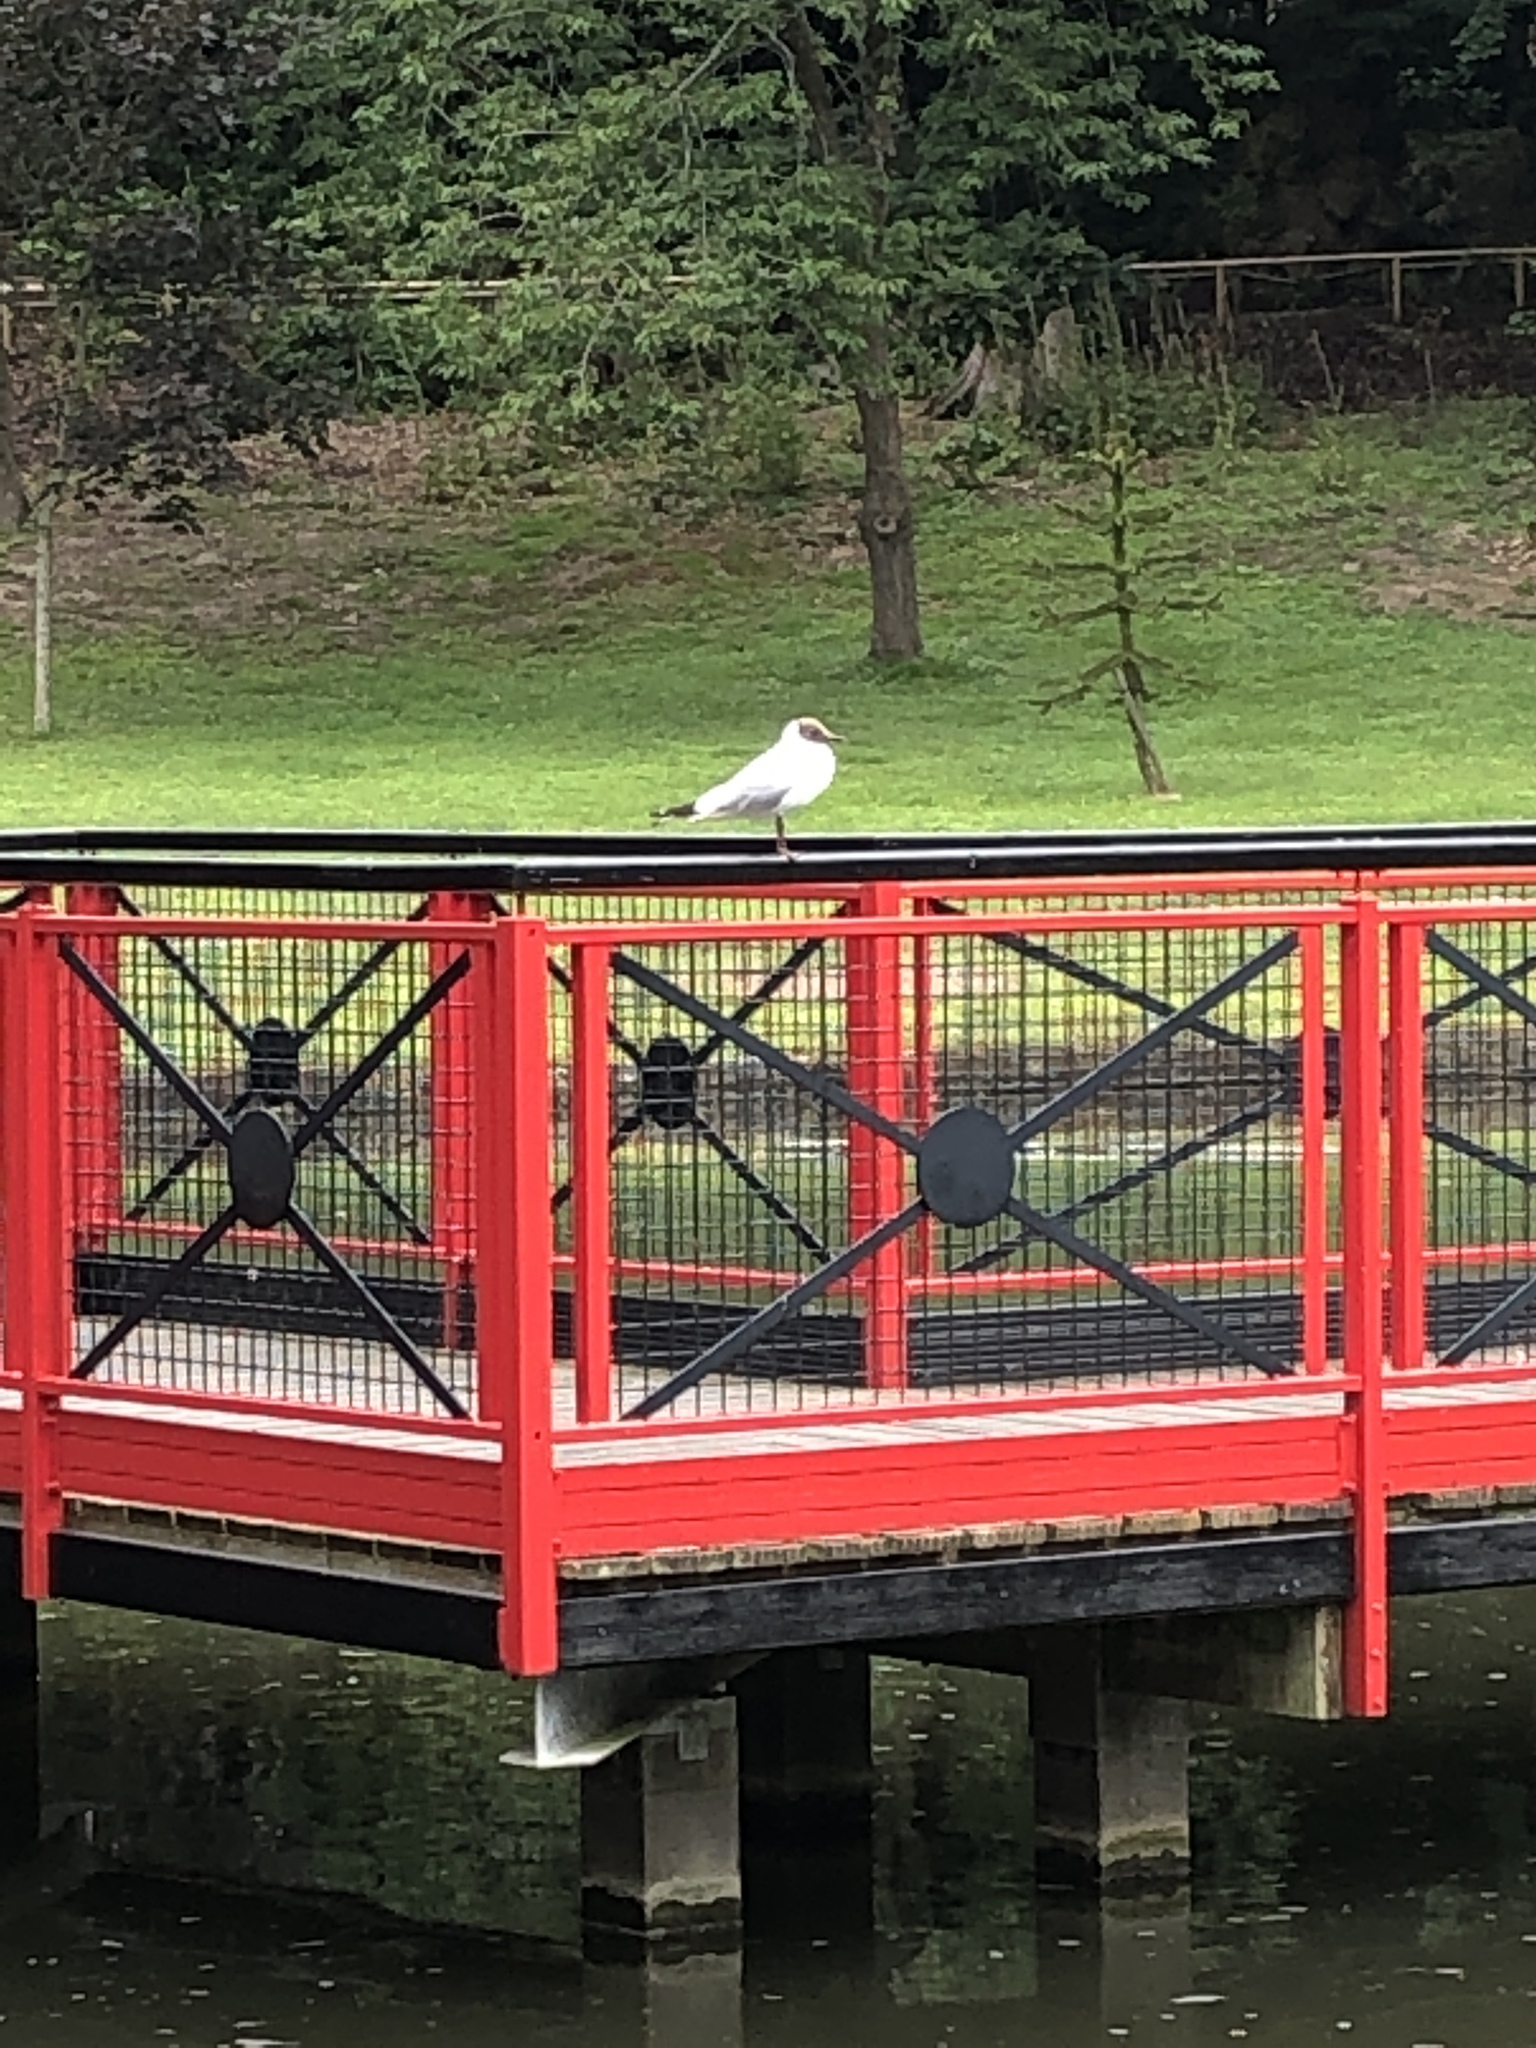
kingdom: Animalia
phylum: Chordata
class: Aves
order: Charadriiformes
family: Laridae
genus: Chroicocephalus
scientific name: Chroicocephalus ridibundus
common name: Black-headed gull
